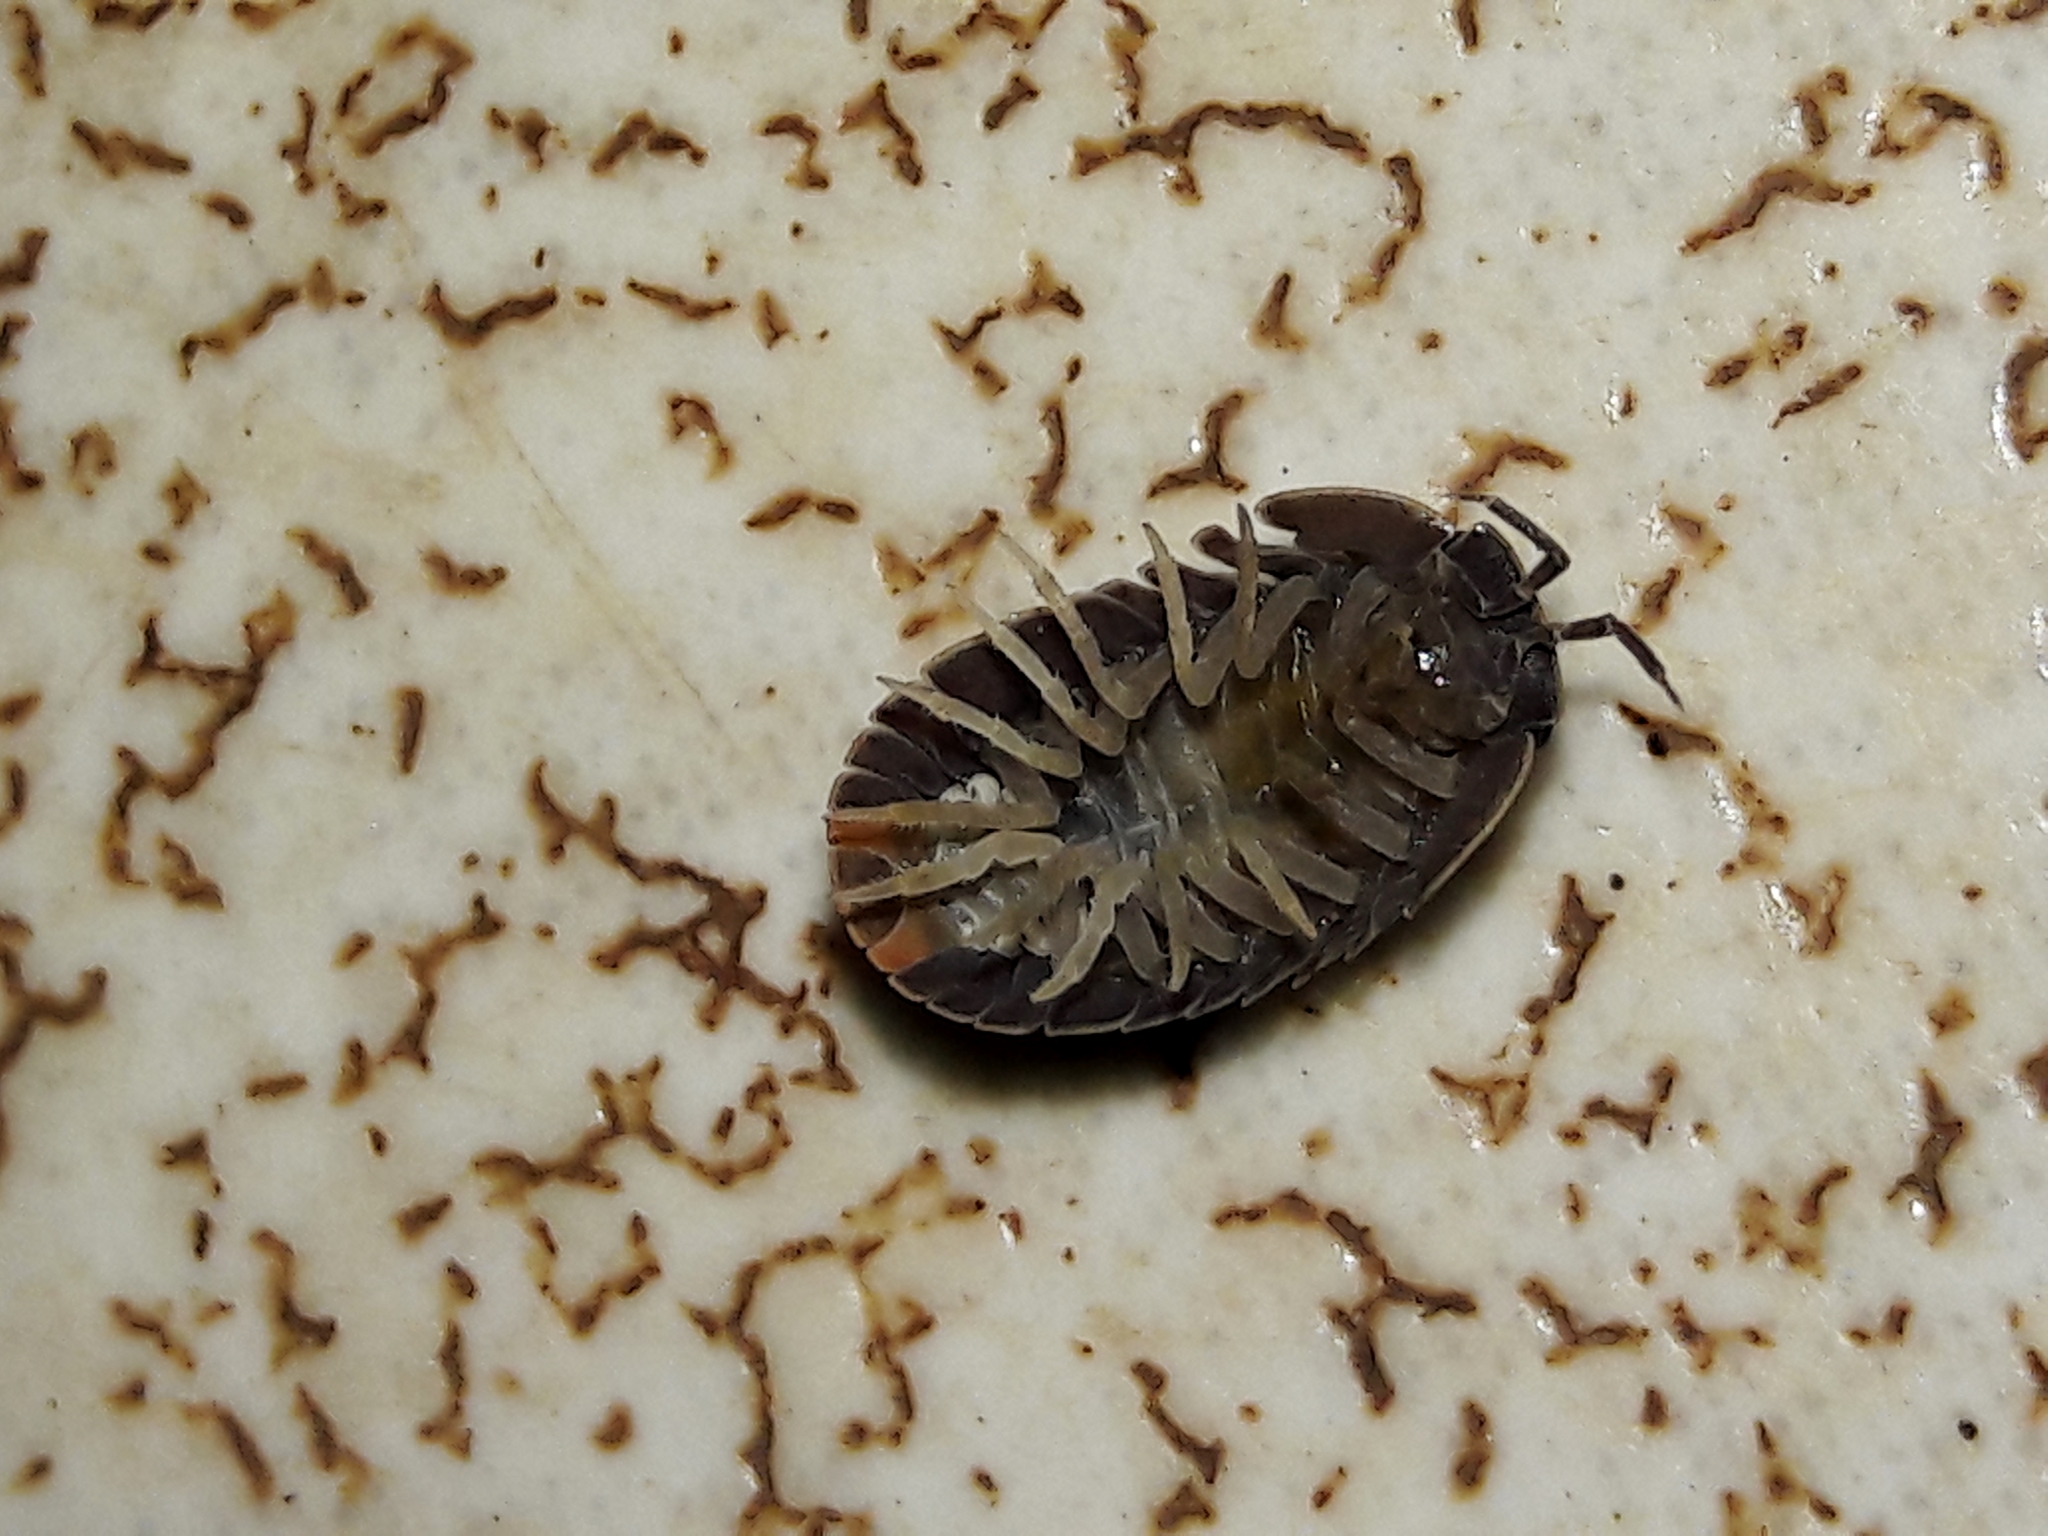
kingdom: Animalia
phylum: Arthropoda
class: Malacostraca
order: Isopoda
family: Armadillidae
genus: Cubaris
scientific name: Cubaris murina
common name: Pillbug
